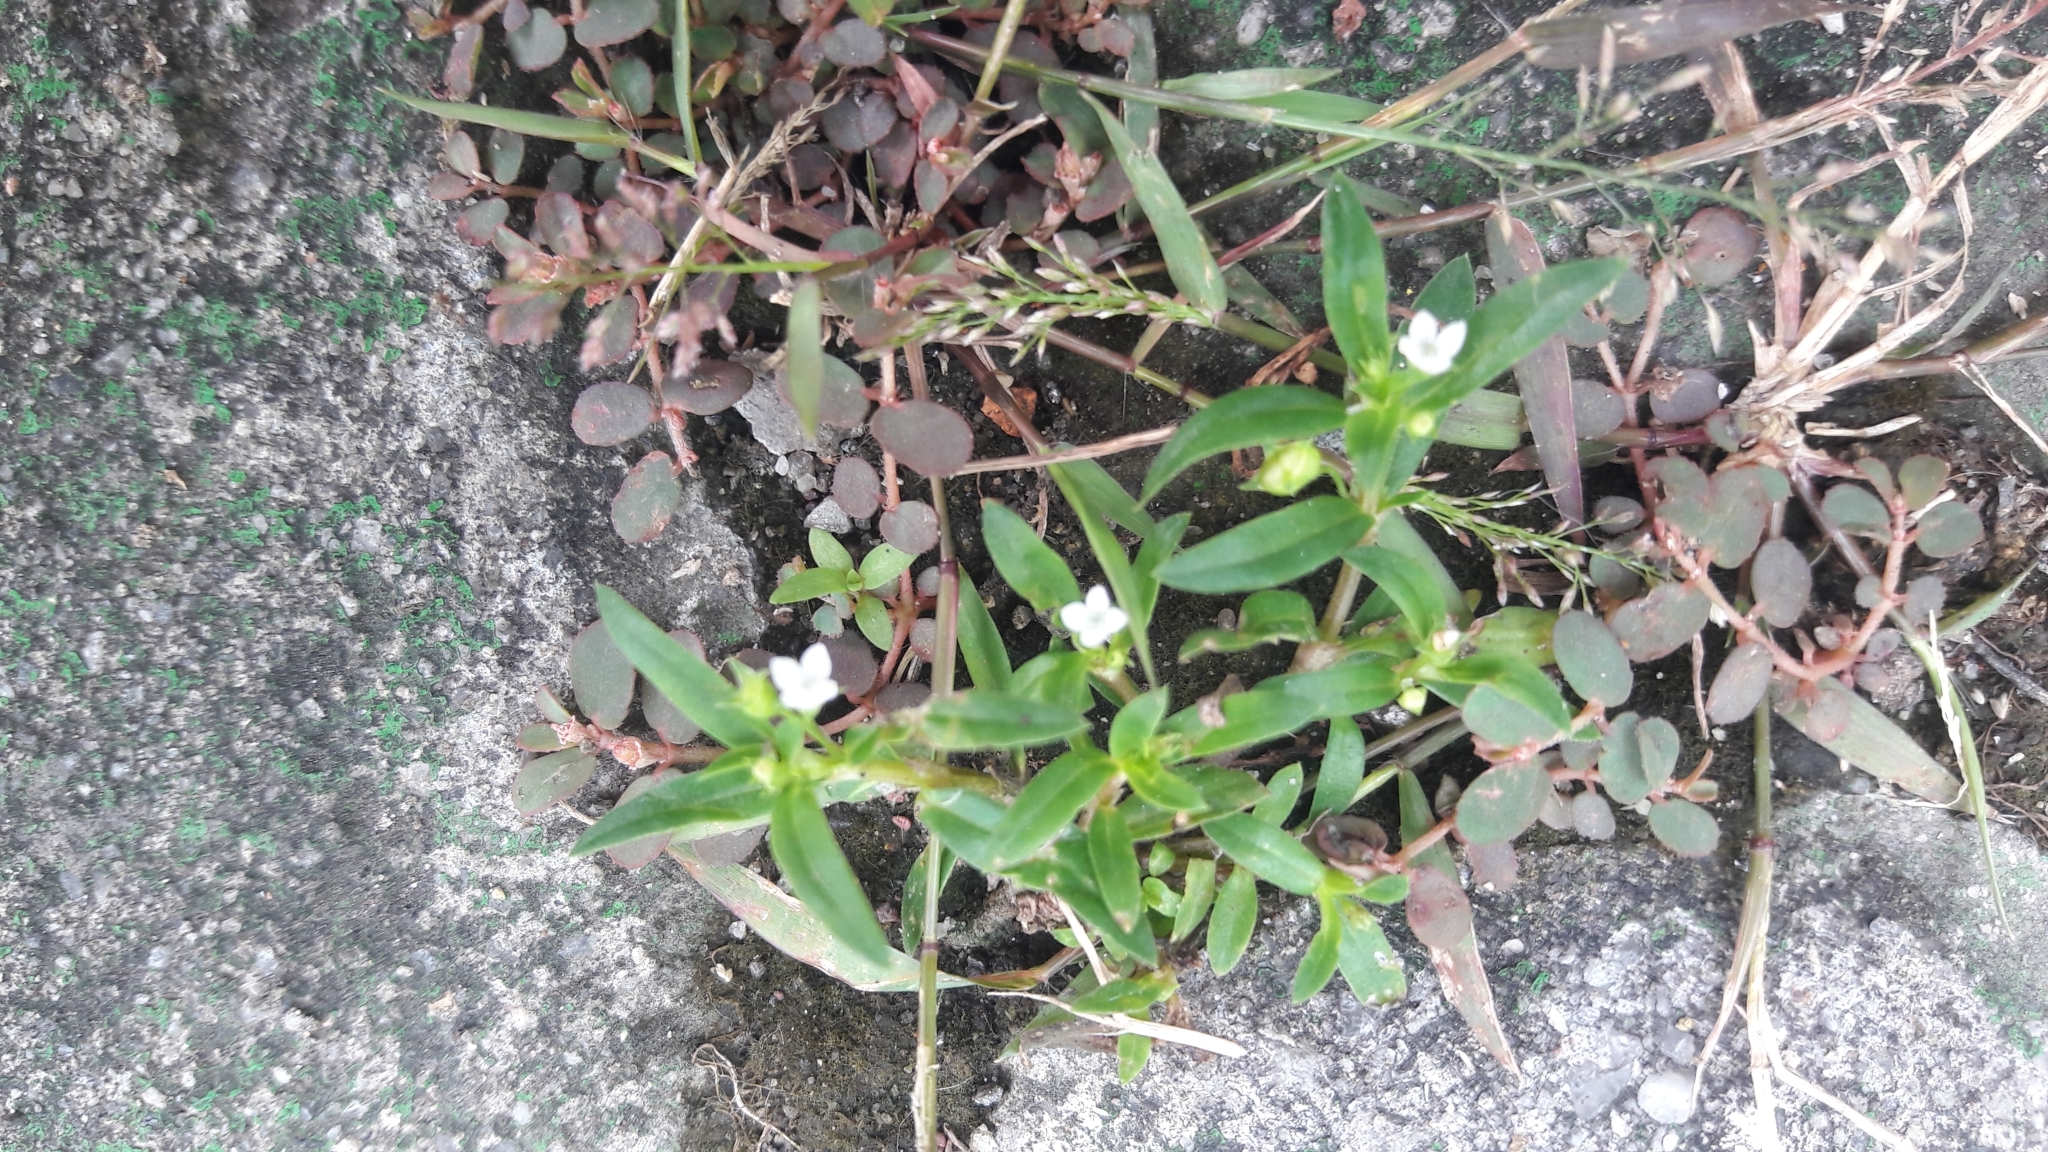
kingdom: Plantae
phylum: Tracheophyta
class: Magnoliopsida
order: Gentianales
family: Rubiaceae
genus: Oldenlandia
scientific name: Oldenlandia corymbosa
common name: Flat-top mille graines
